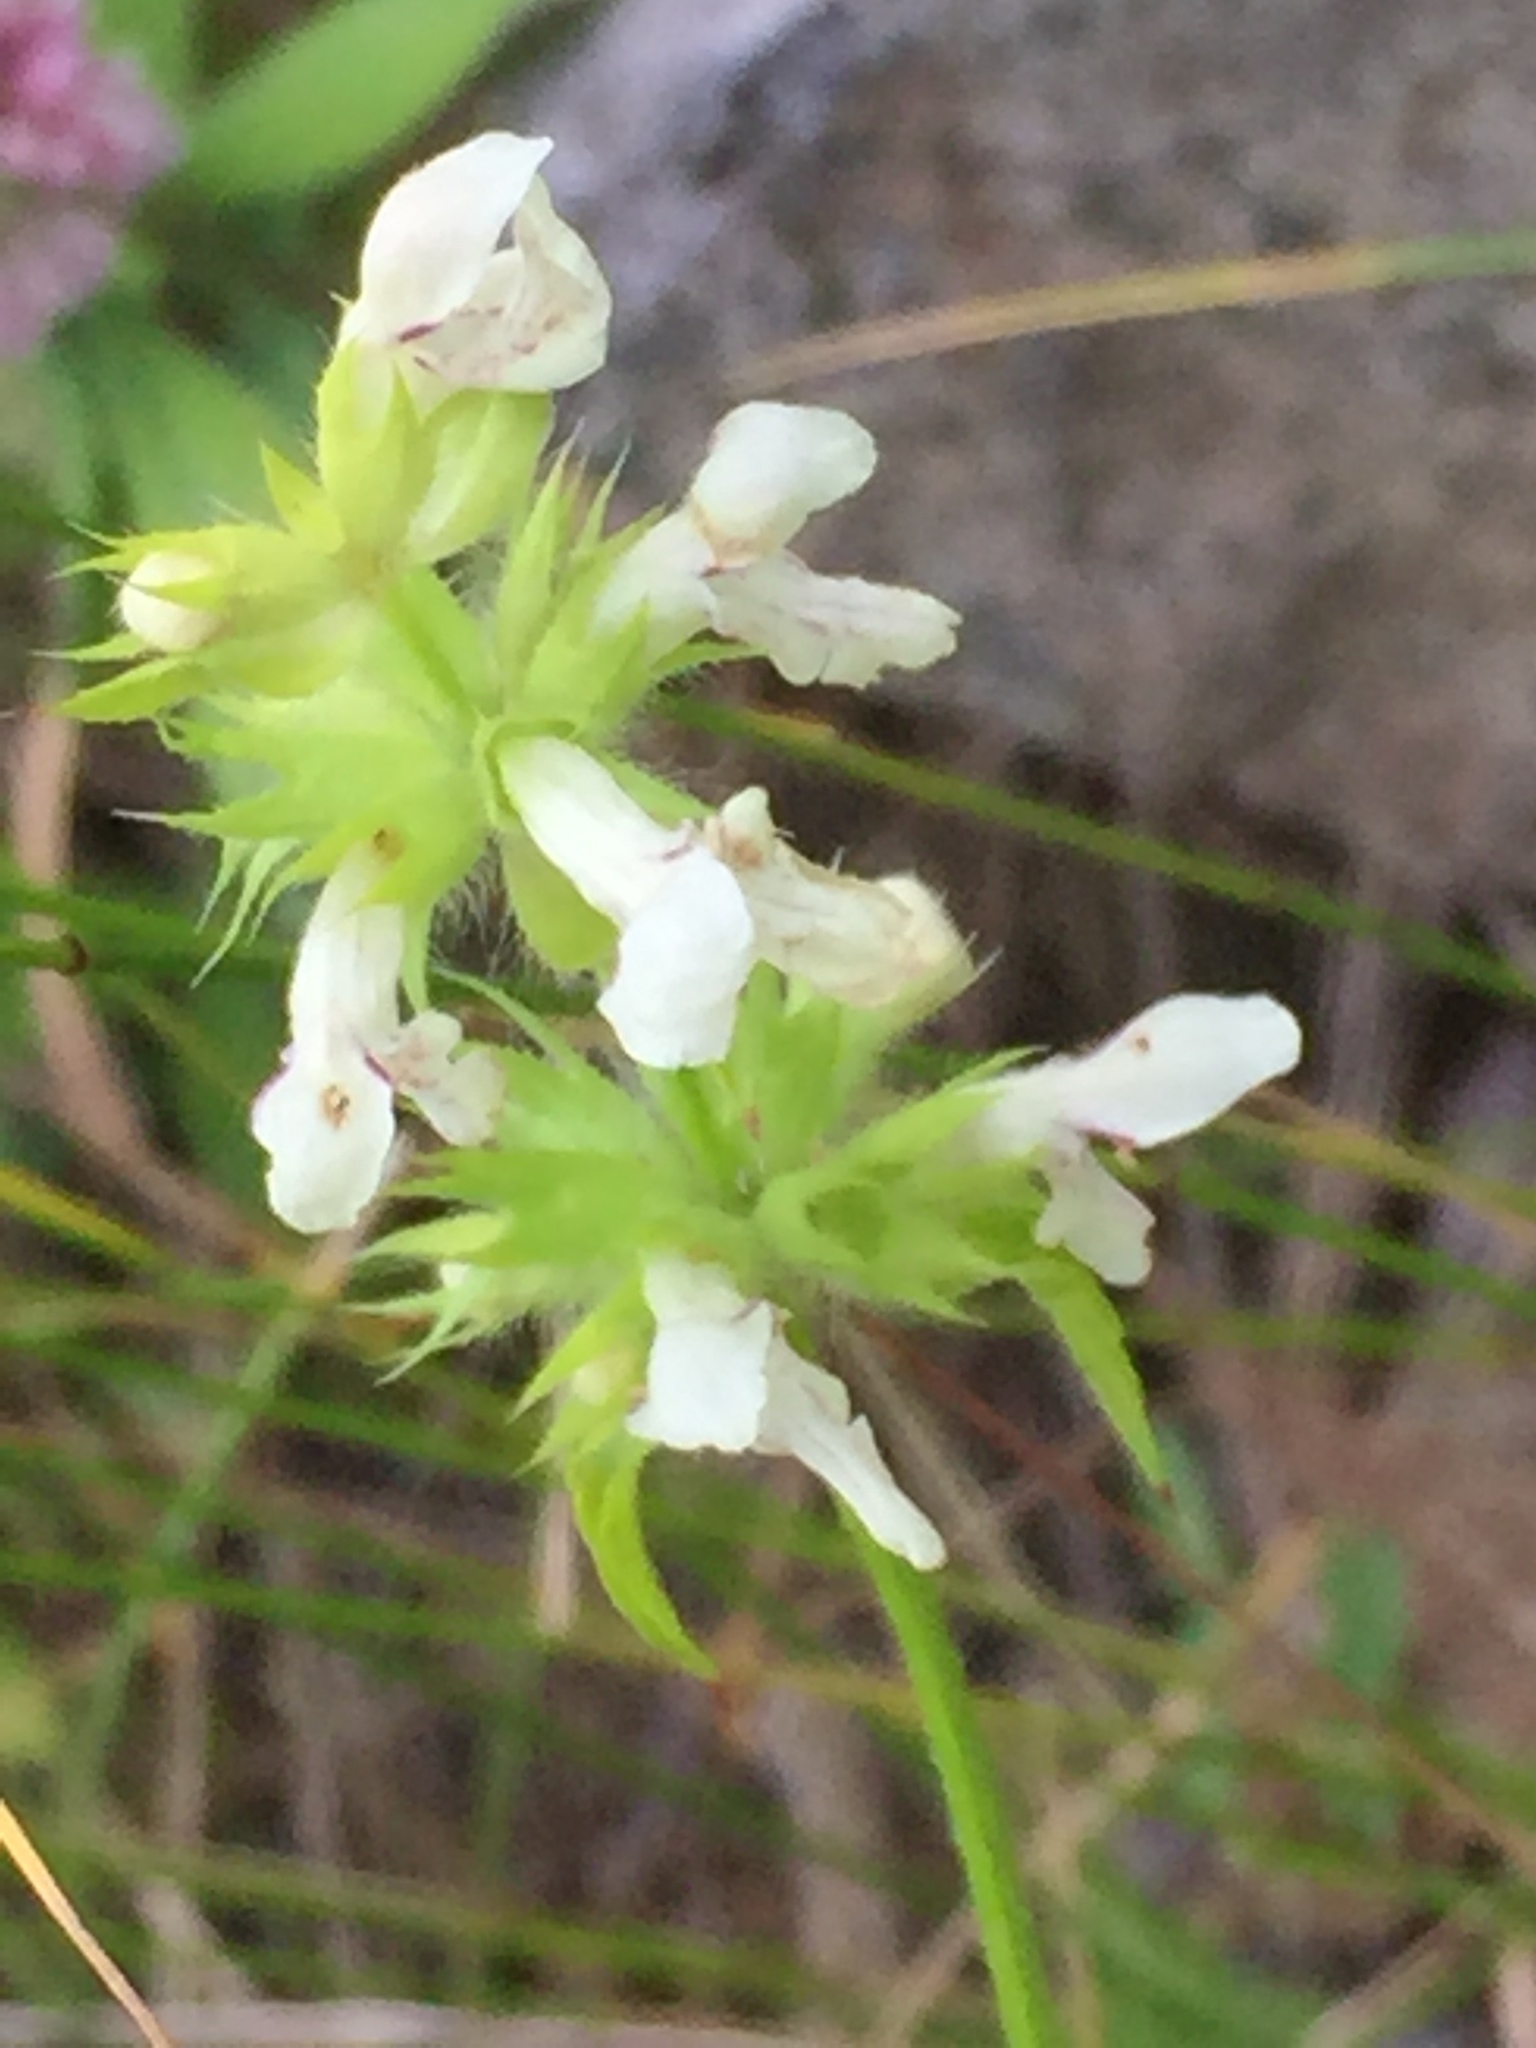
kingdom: Plantae
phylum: Tracheophyta
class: Magnoliopsida
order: Lamiales
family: Lamiaceae
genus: Stachys
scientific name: Stachys recta
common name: Perennial yellow-woundwort
